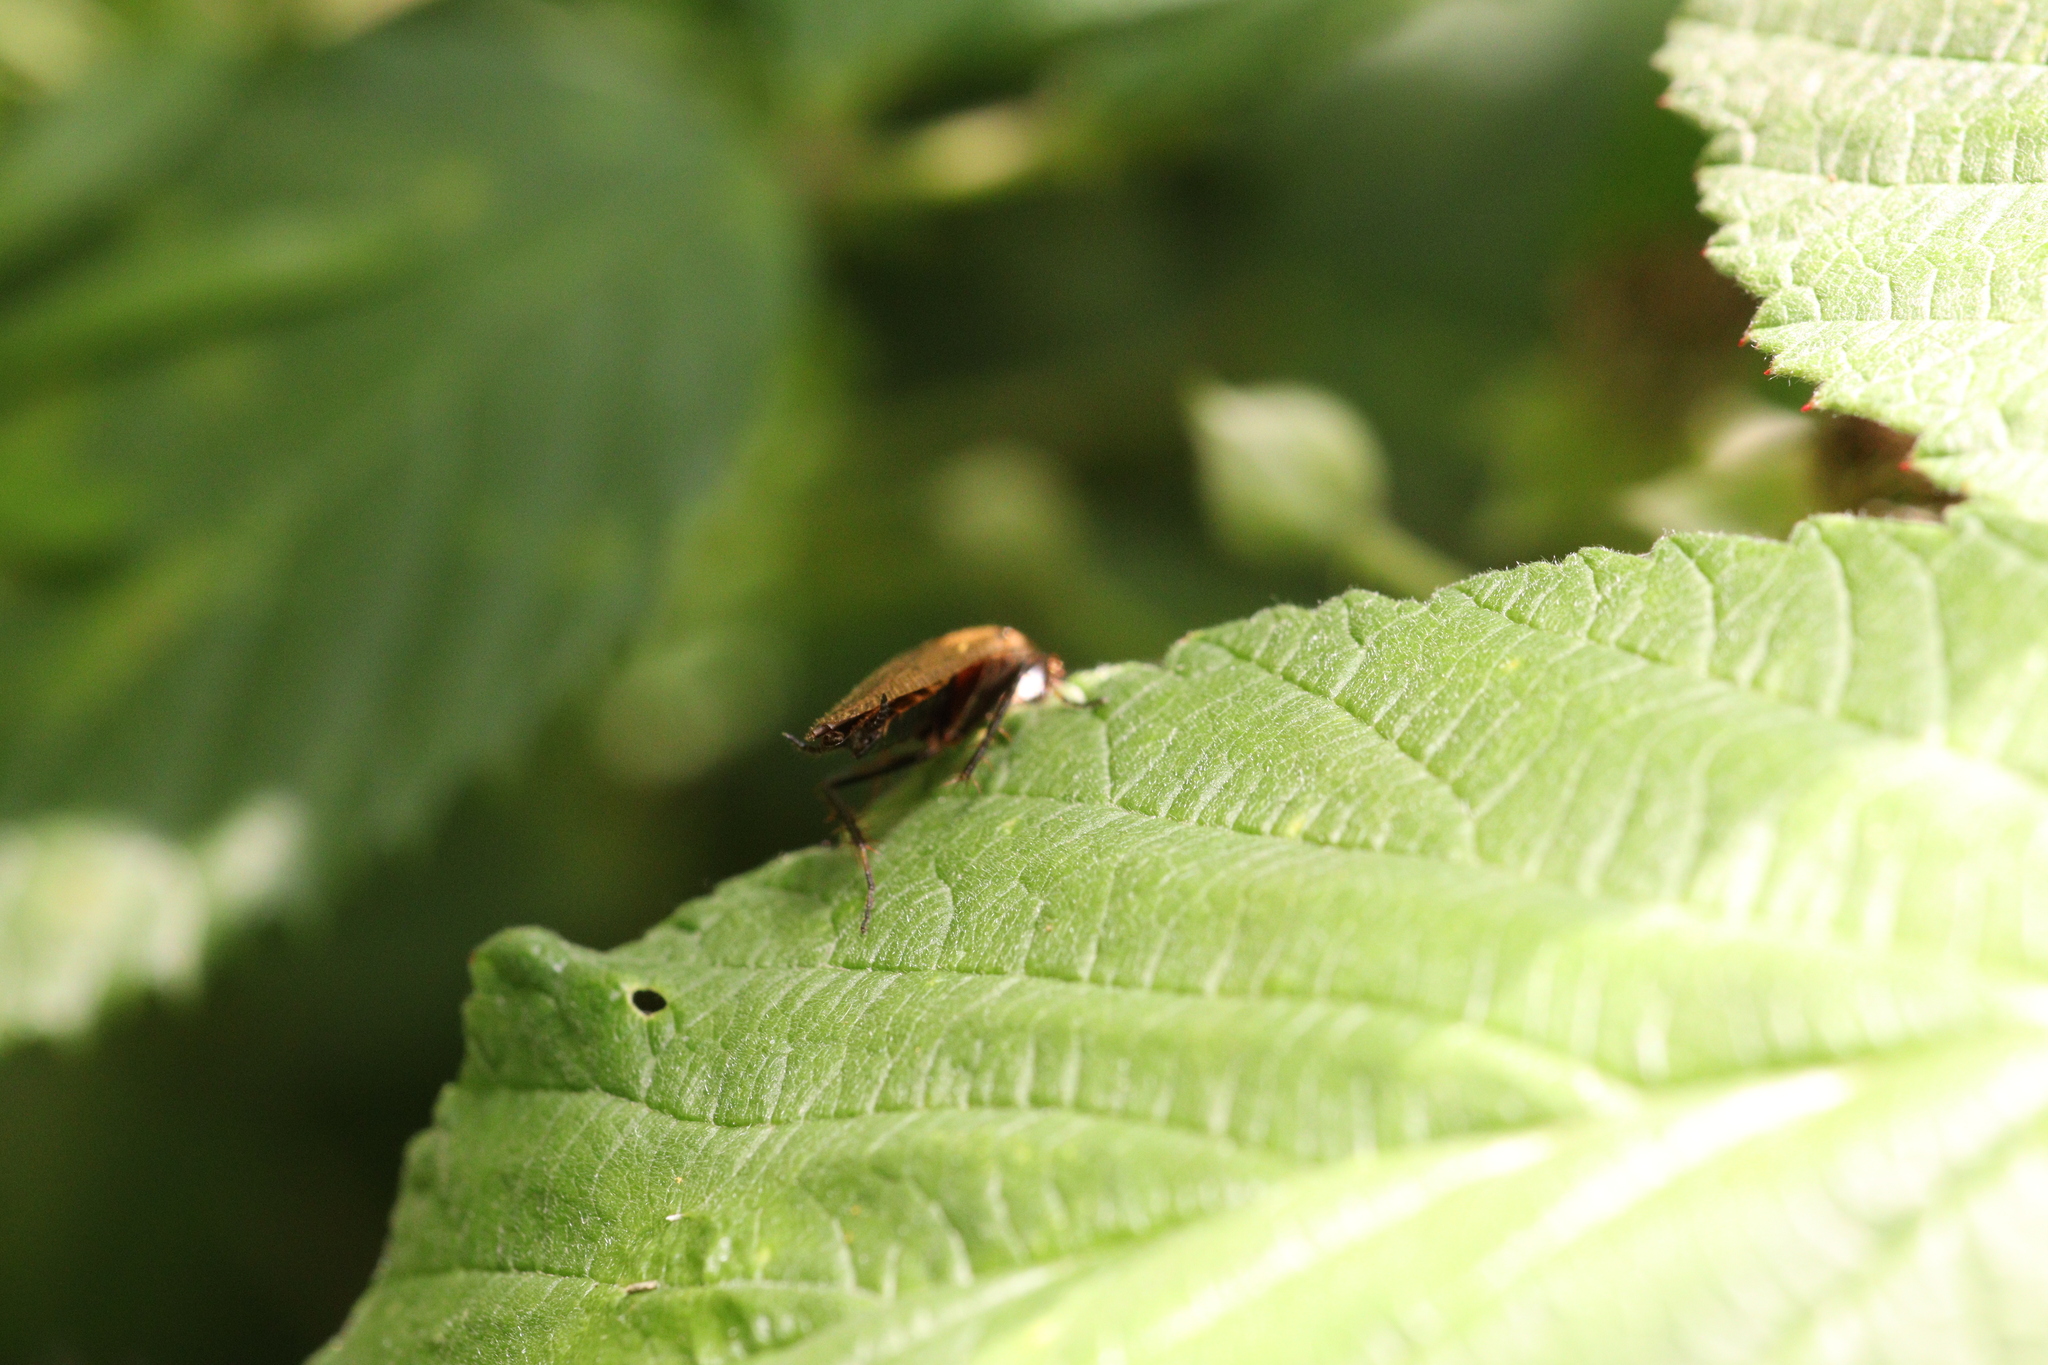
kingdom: Animalia
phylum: Arthropoda
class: Insecta
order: Blattodea
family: Ectobiidae
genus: Ectobius
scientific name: Ectobius sylvestris
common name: Forest cockroach
